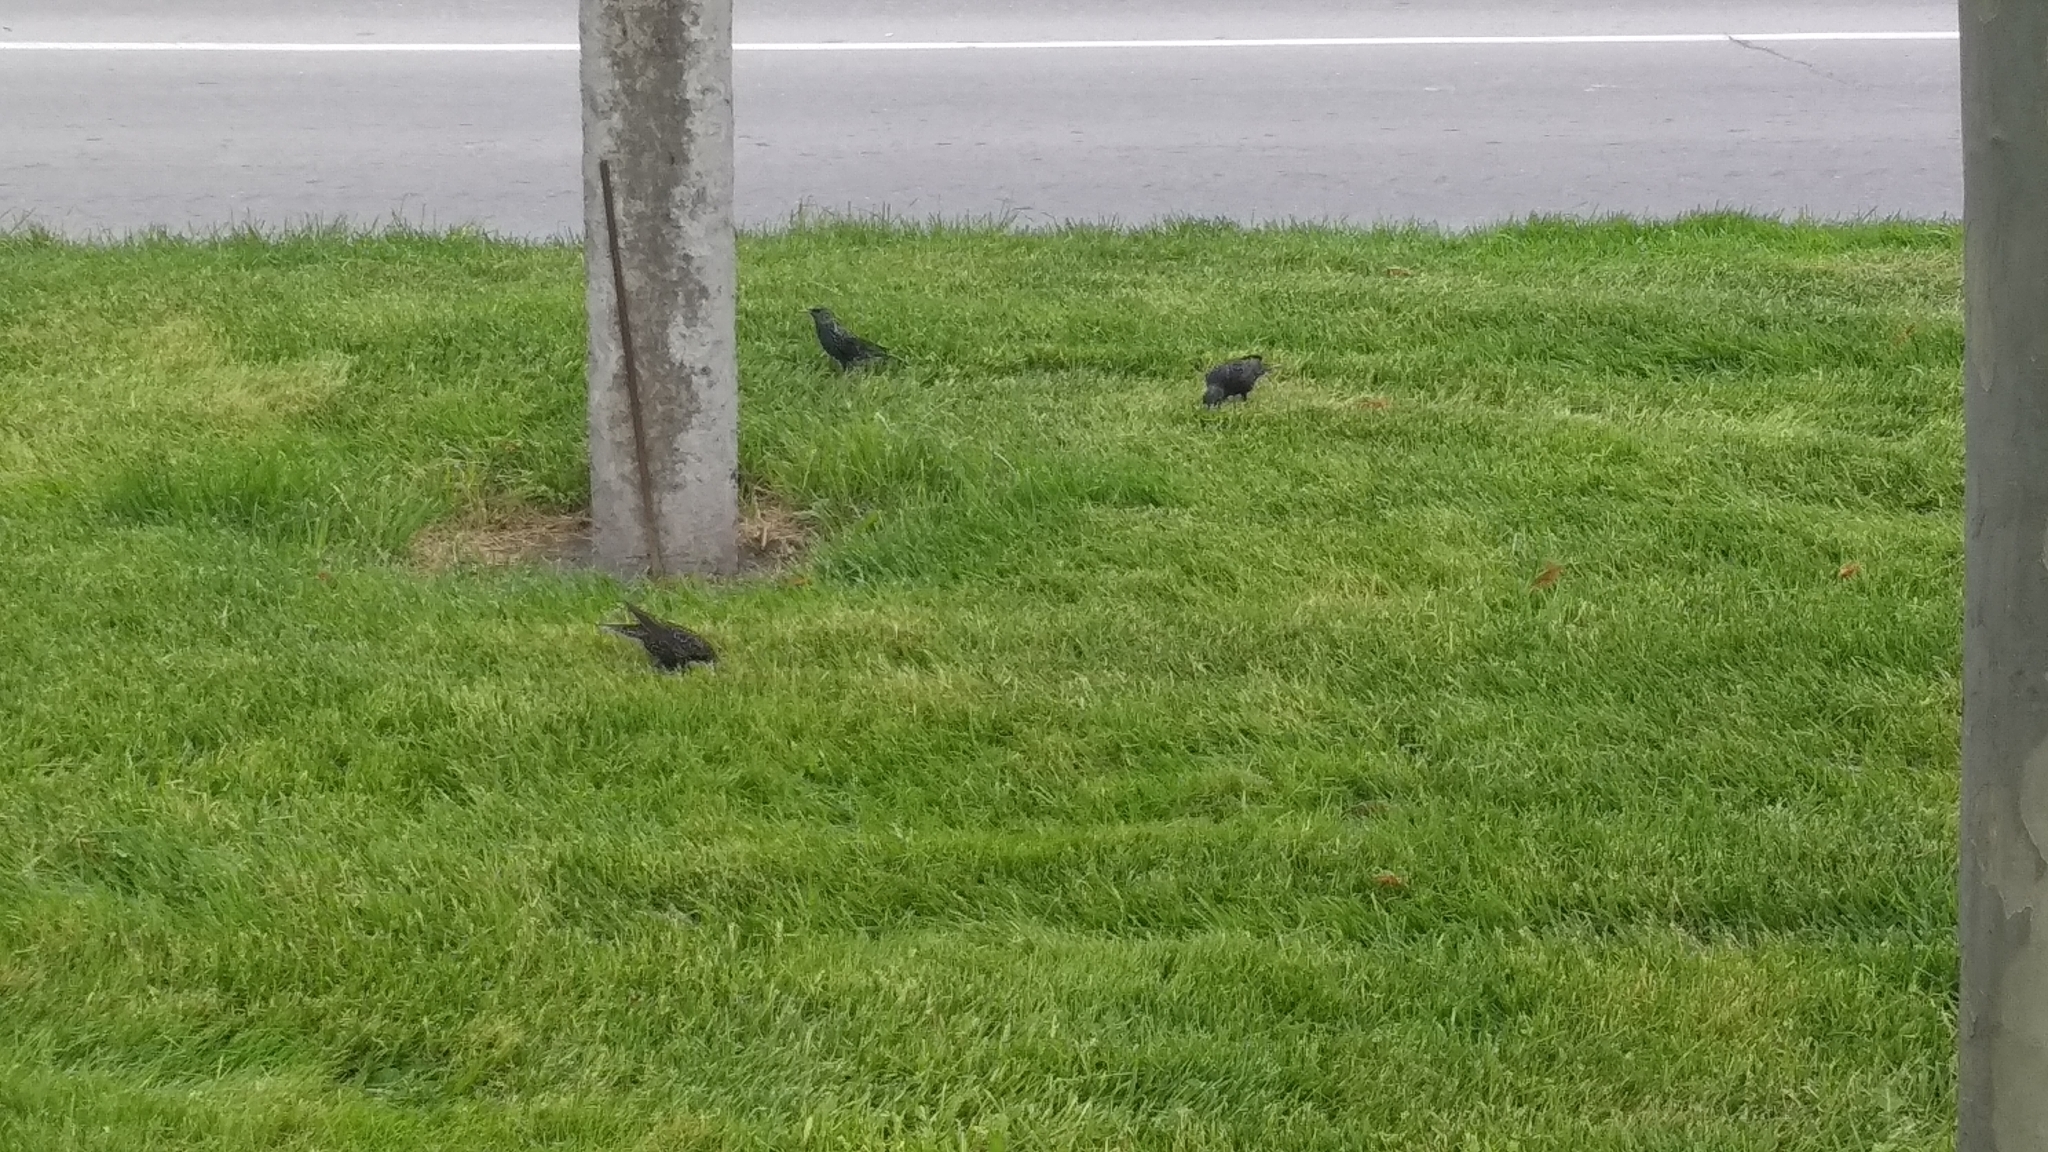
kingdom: Animalia
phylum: Chordata
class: Aves
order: Passeriformes
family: Sturnidae
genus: Sturnus
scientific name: Sturnus vulgaris
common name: Common starling
